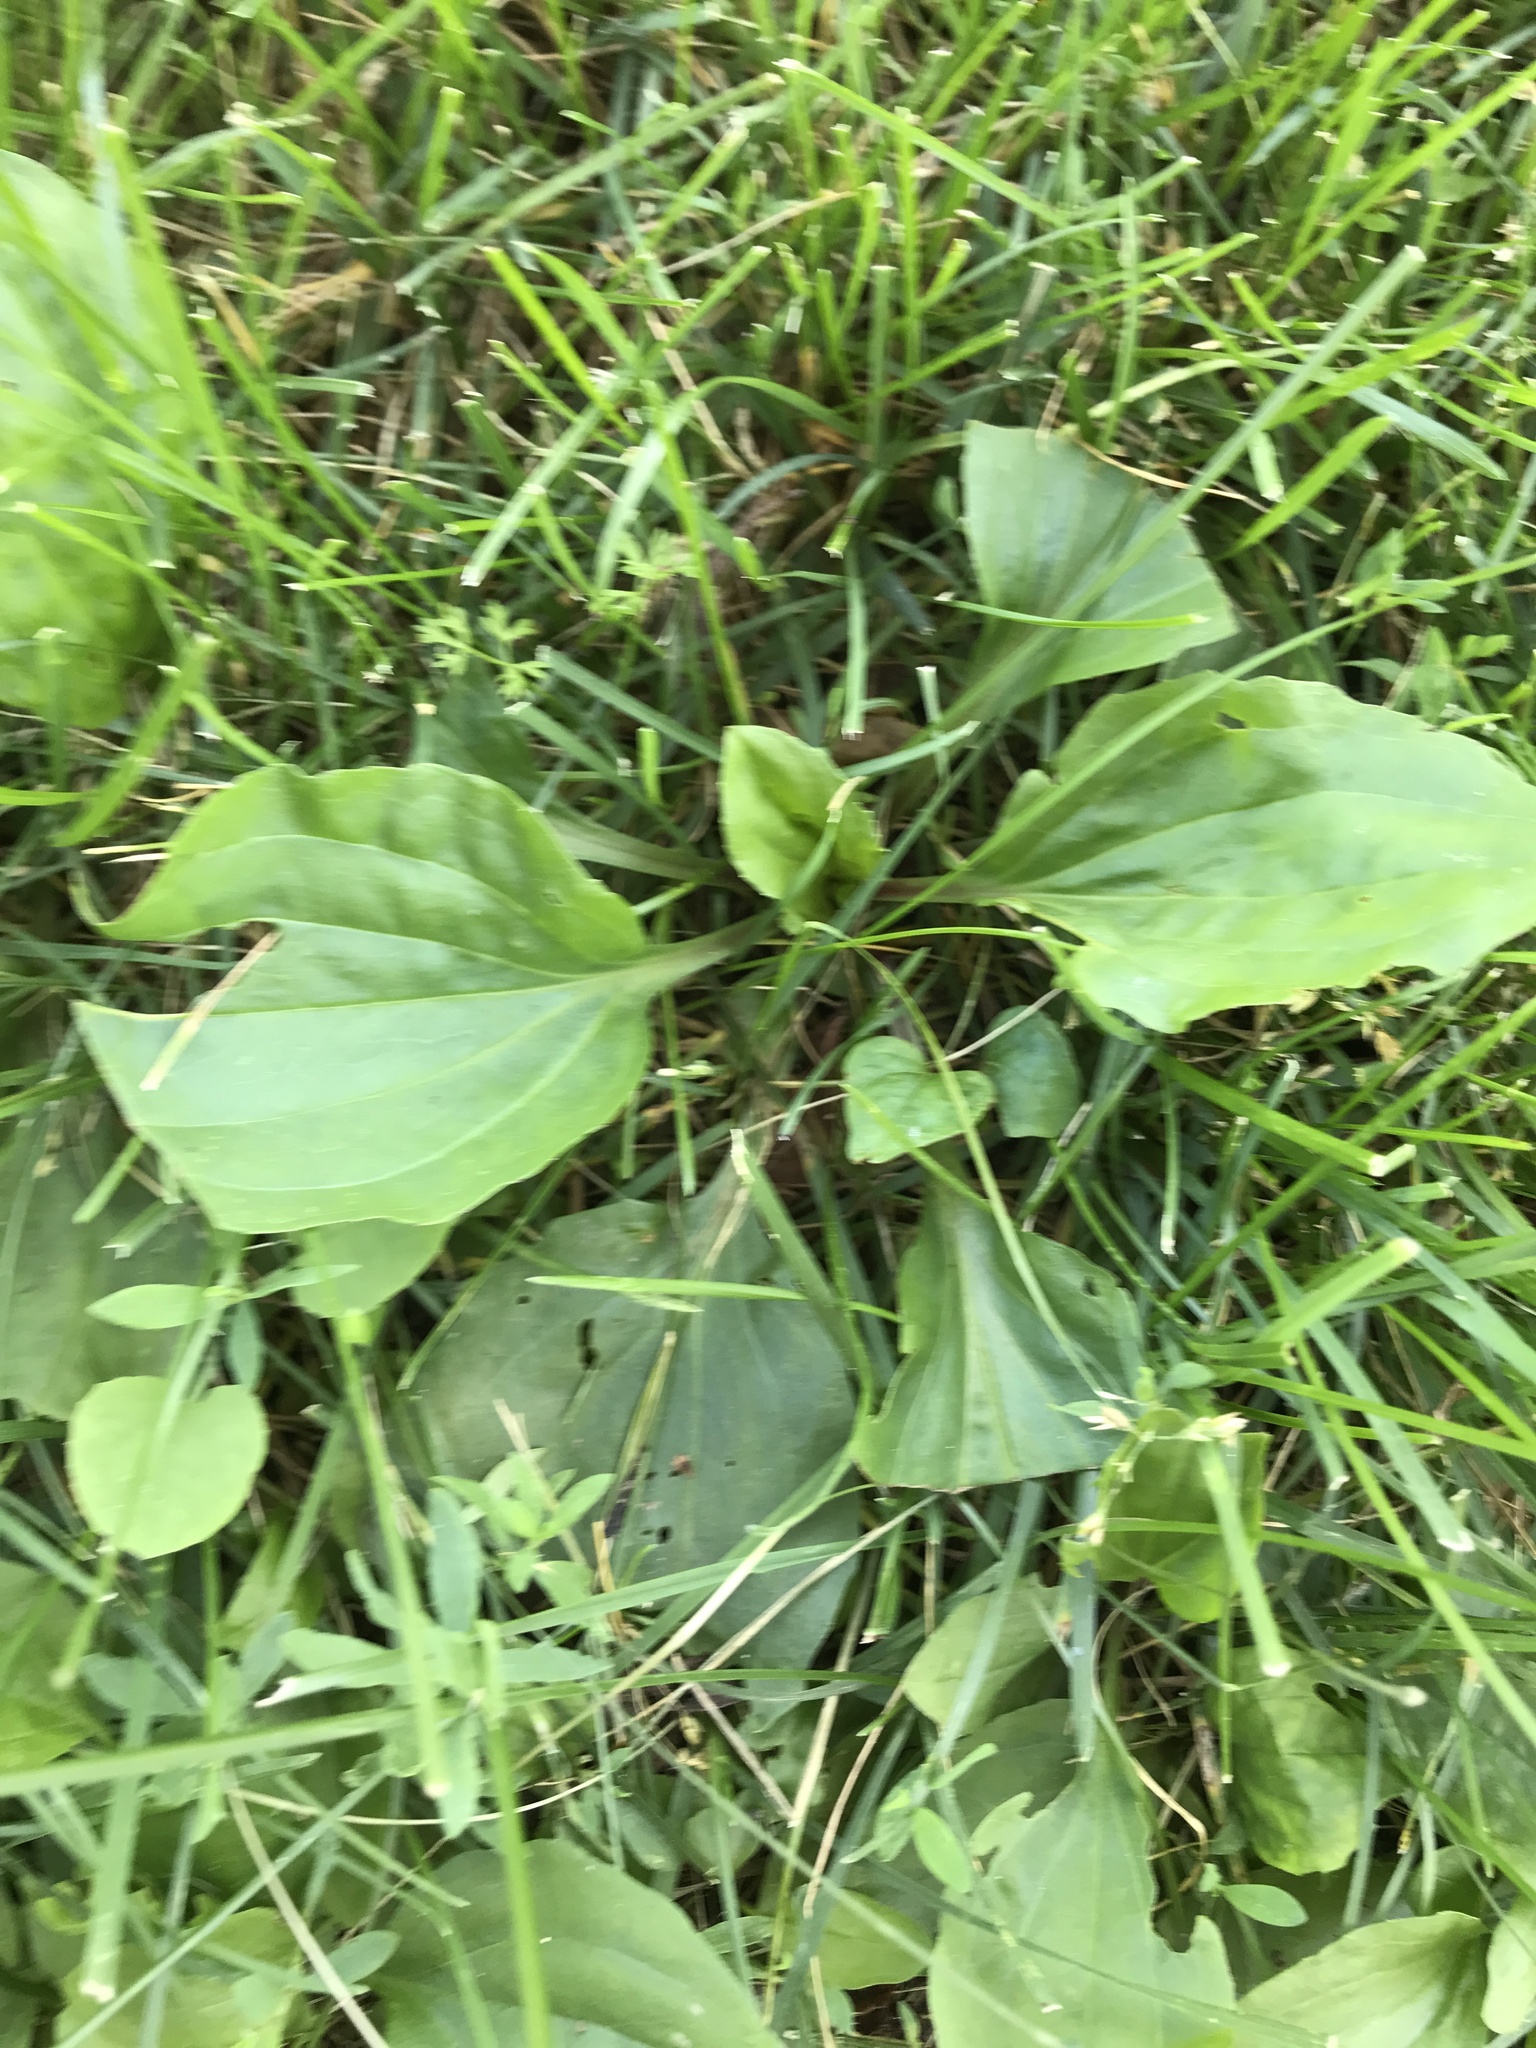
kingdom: Plantae
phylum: Tracheophyta
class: Magnoliopsida
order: Lamiales
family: Plantaginaceae
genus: Plantago
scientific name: Plantago major
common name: Common plantain
